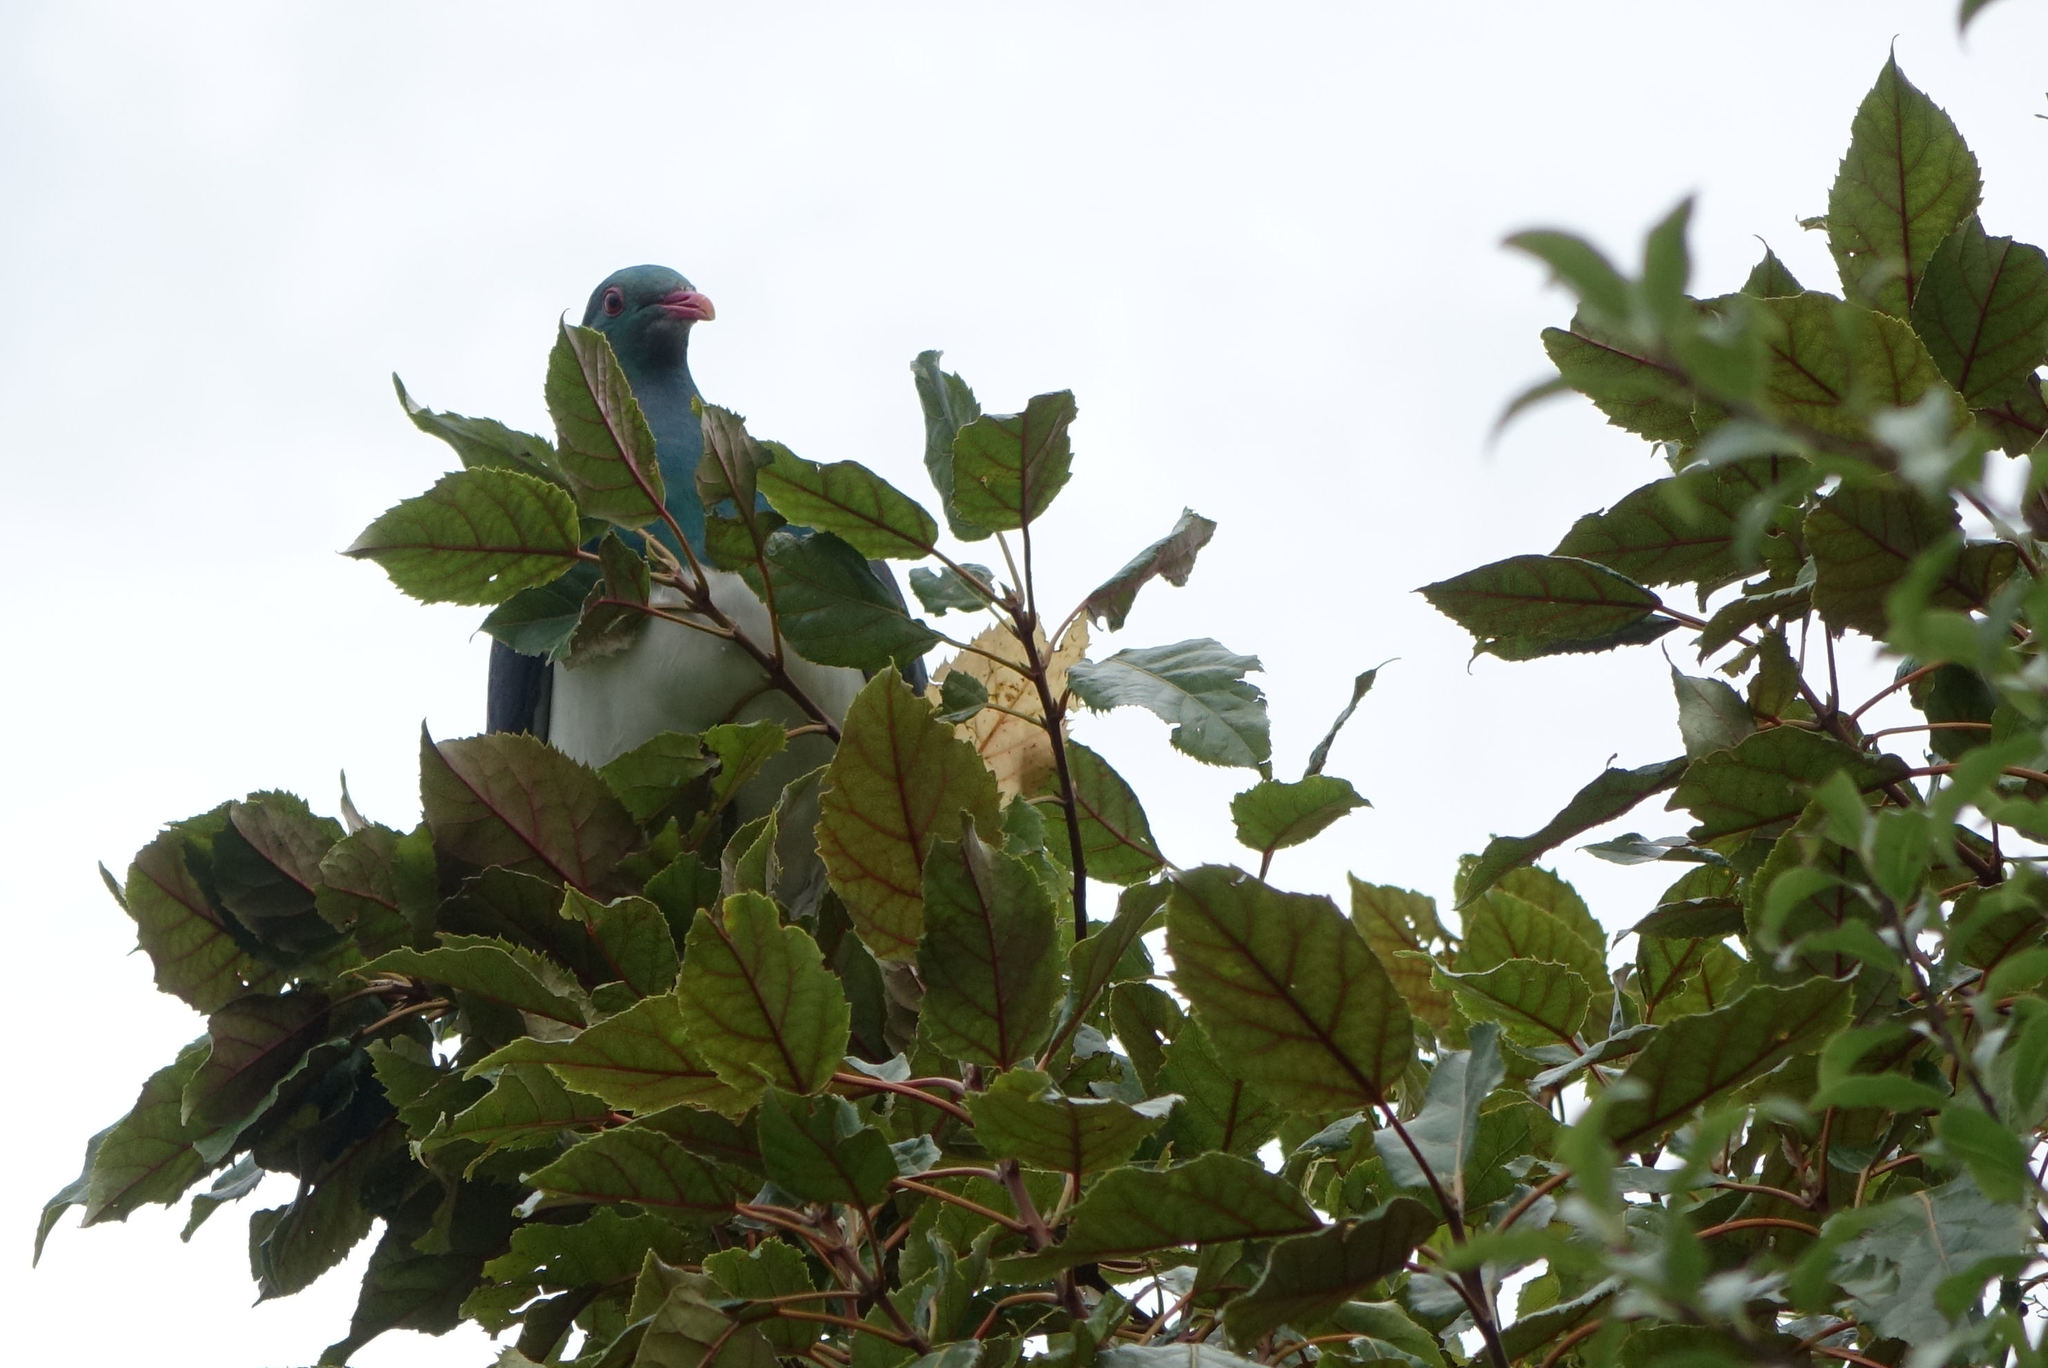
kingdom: Animalia
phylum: Chordata
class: Aves
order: Columbiformes
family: Columbidae
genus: Hemiphaga
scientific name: Hemiphaga novaeseelandiae
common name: New zealand pigeon
